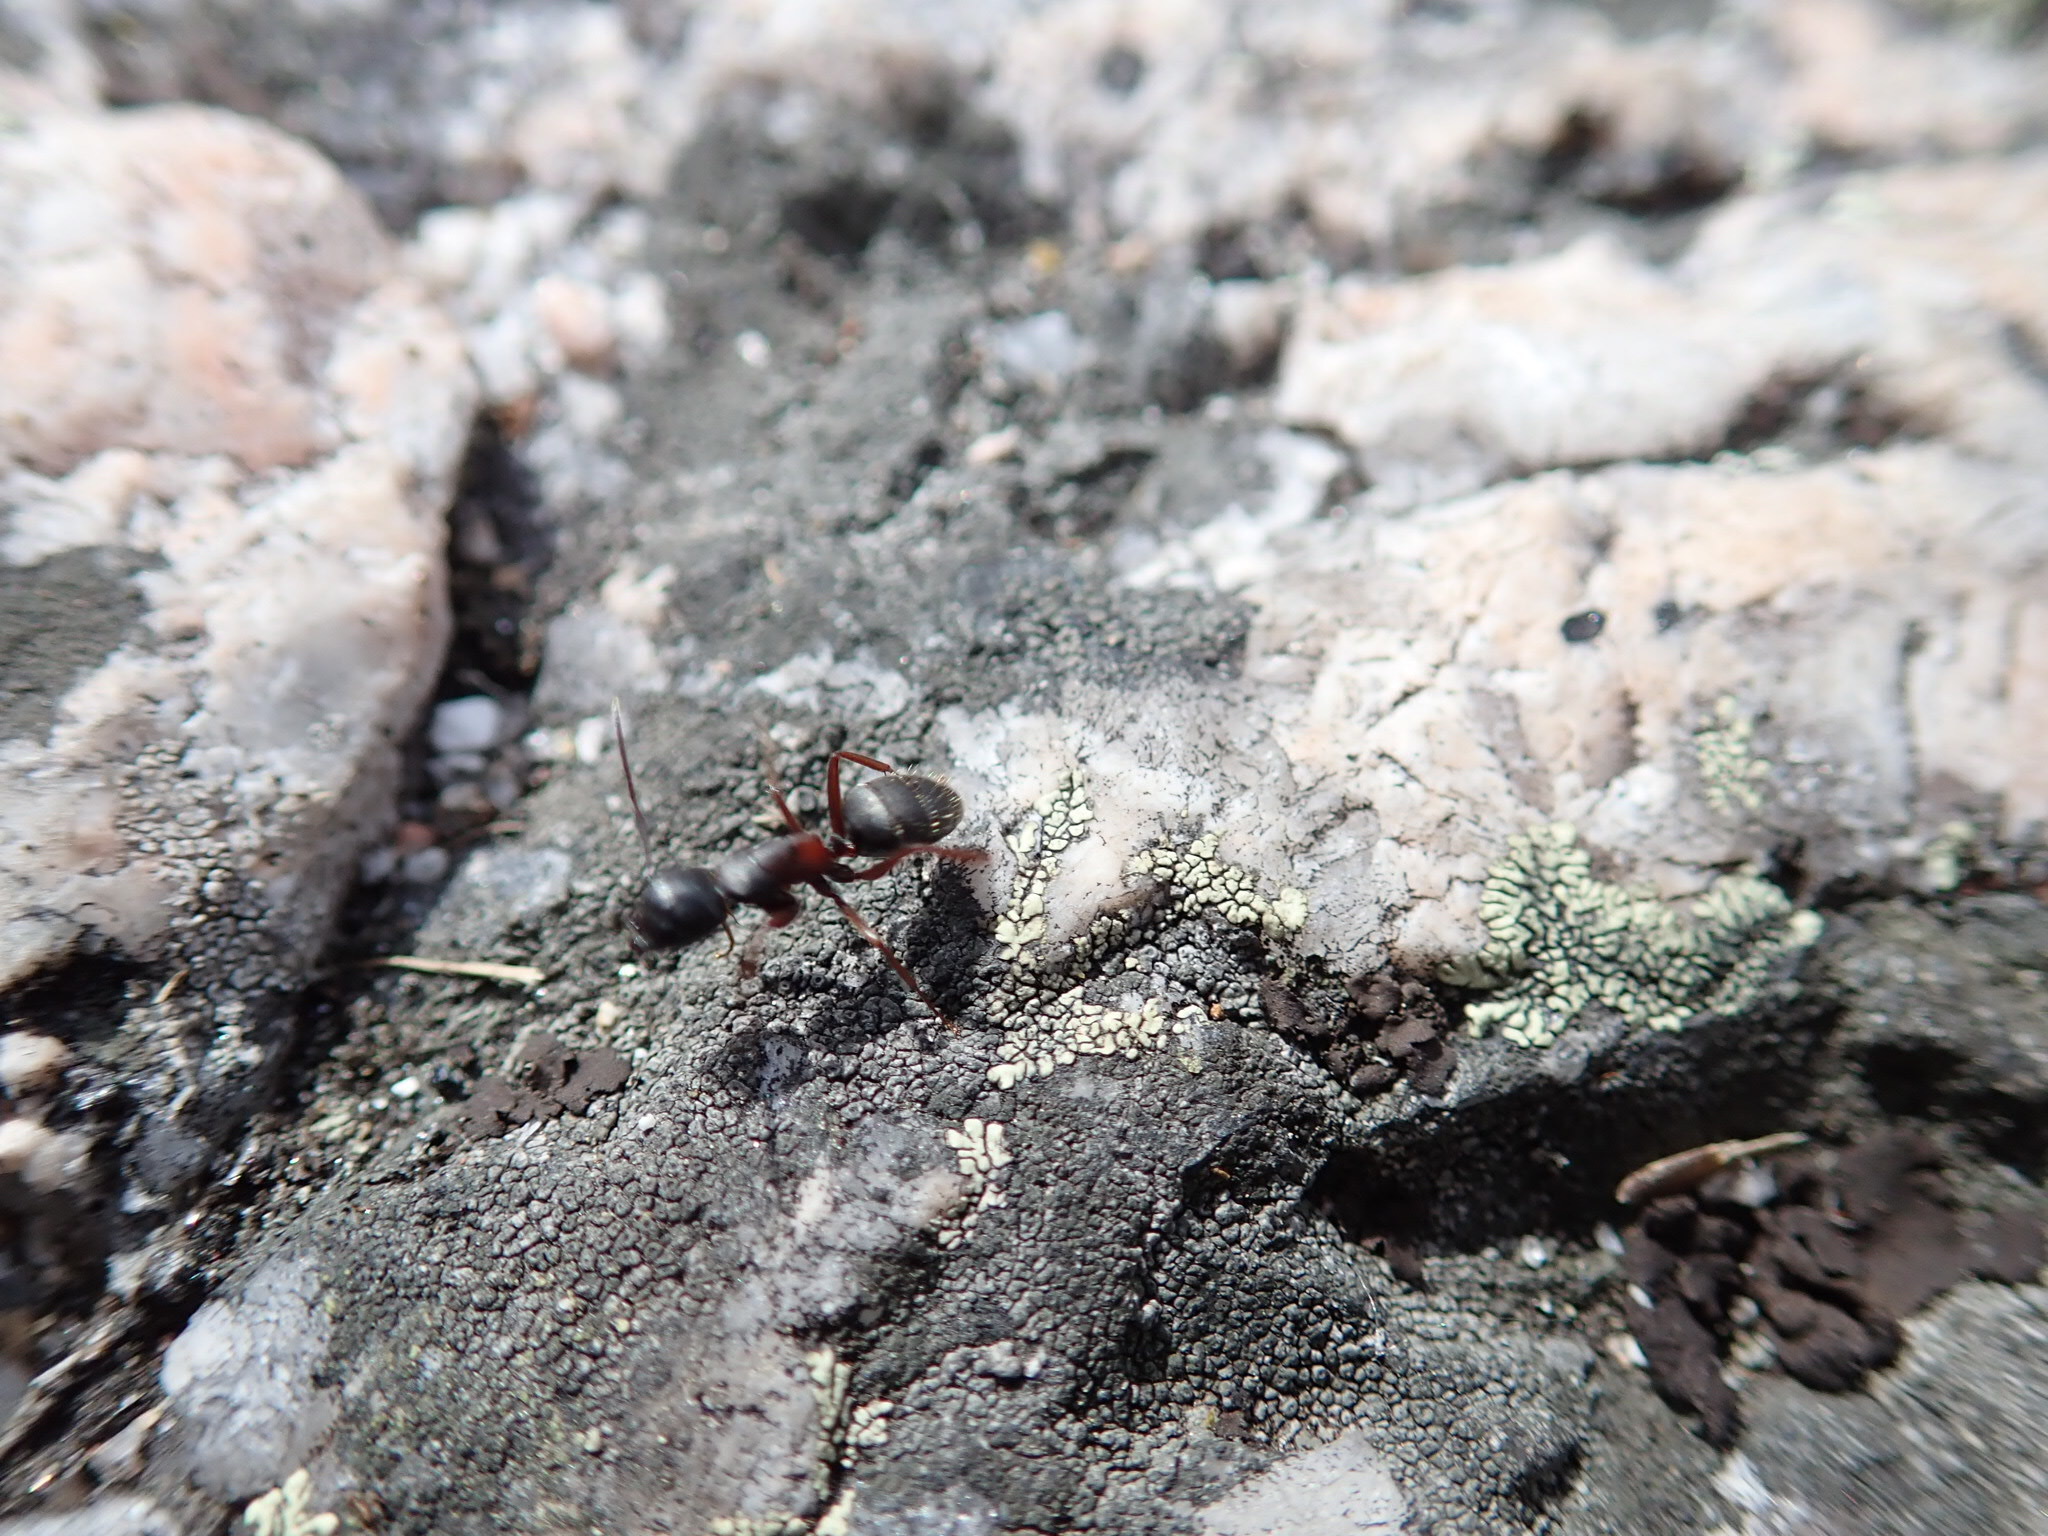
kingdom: Animalia
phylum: Arthropoda
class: Insecta
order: Hymenoptera
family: Formicidae
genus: Camponotus
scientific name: Camponotus herculeanus
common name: Hercules ant
